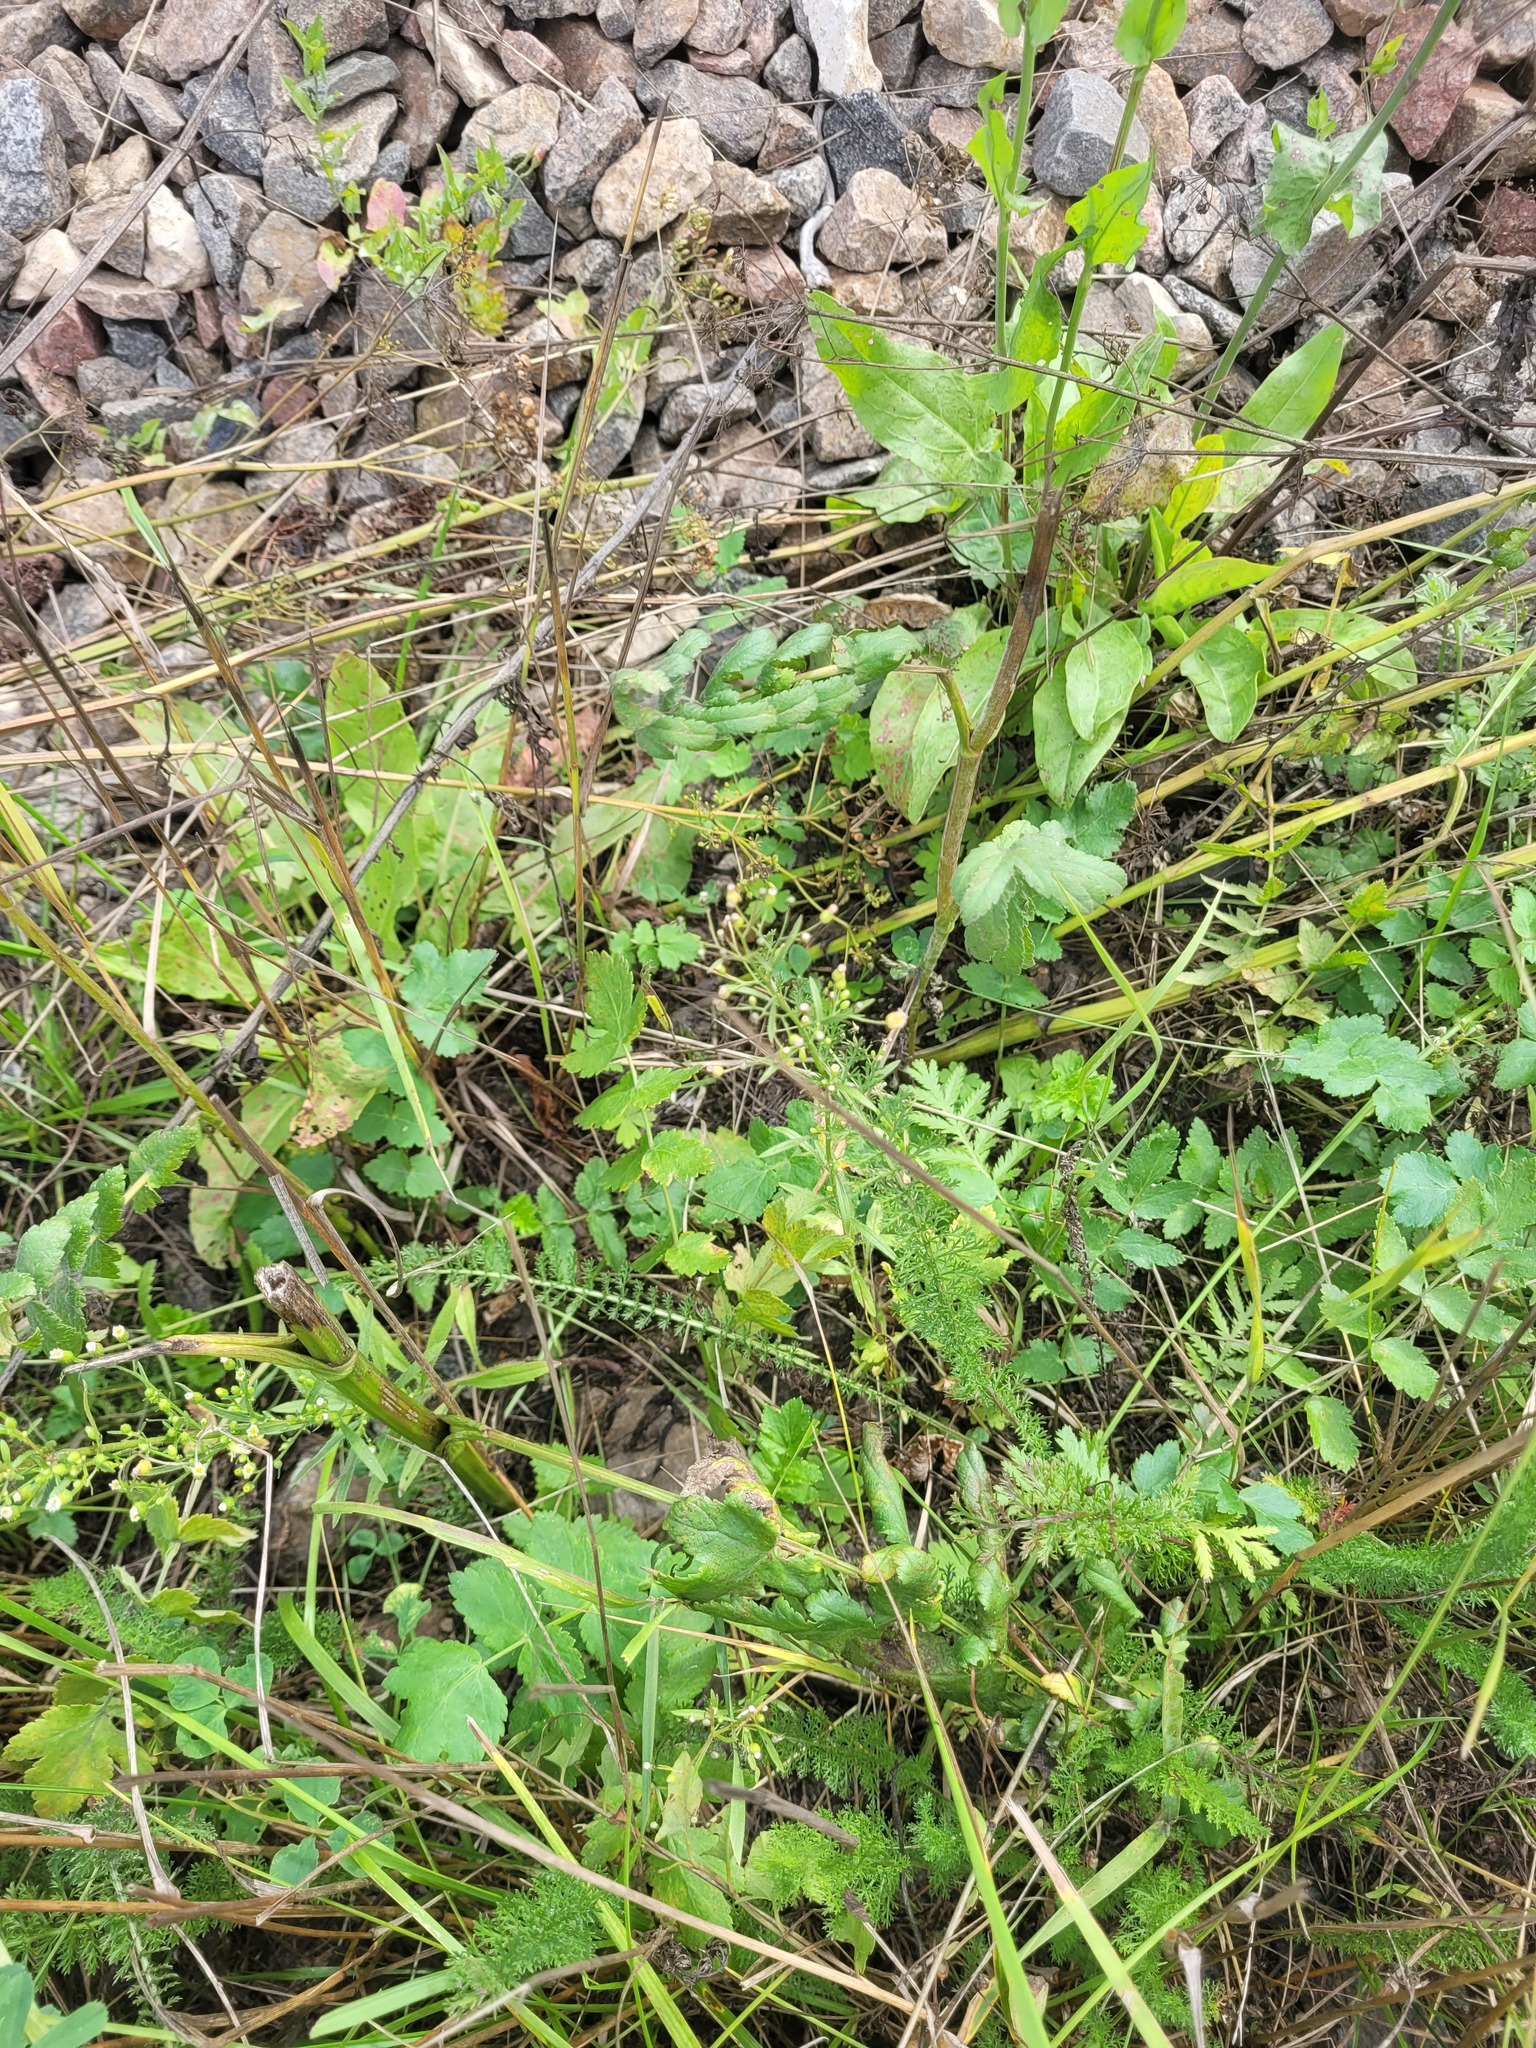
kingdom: Plantae
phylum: Tracheophyta
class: Magnoliopsida
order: Asterales
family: Asteraceae
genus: Erigeron
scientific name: Erigeron canadensis
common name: Canadian fleabane
